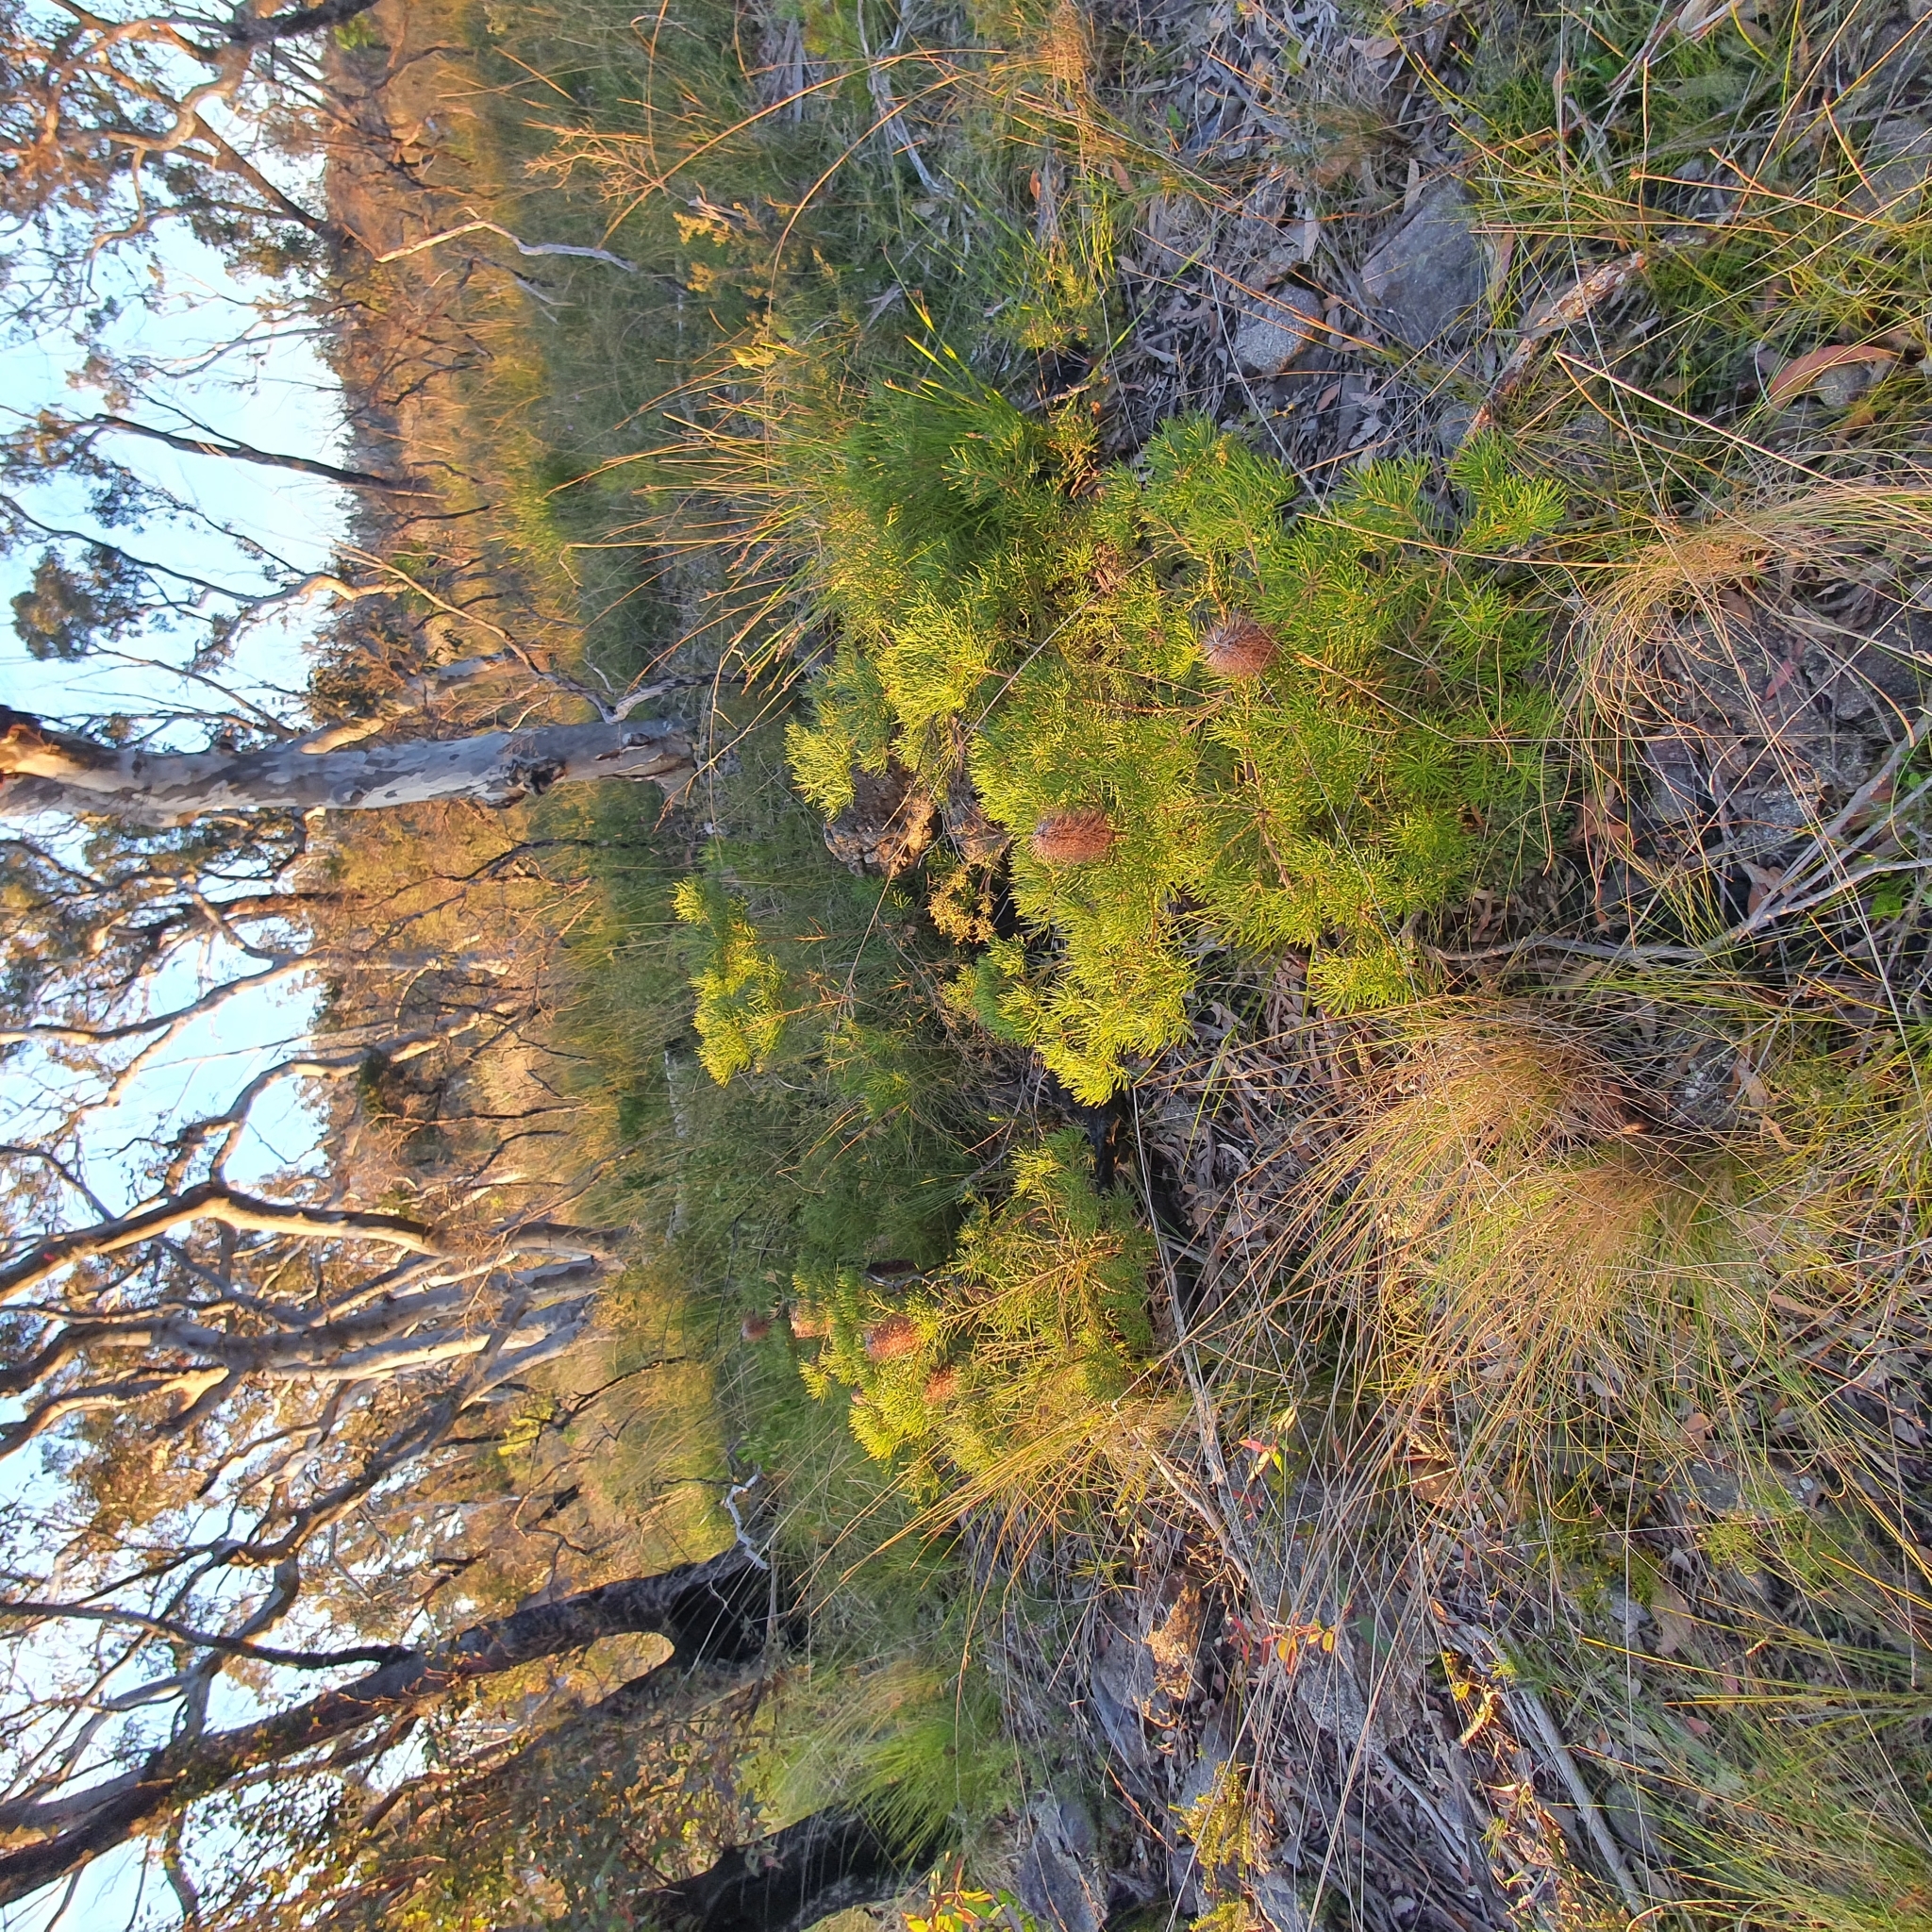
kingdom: Plantae
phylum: Tracheophyta
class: Magnoliopsida
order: Proteales
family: Proteaceae
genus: Banksia
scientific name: Banksia spinulosa
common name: Hairpin banksia
